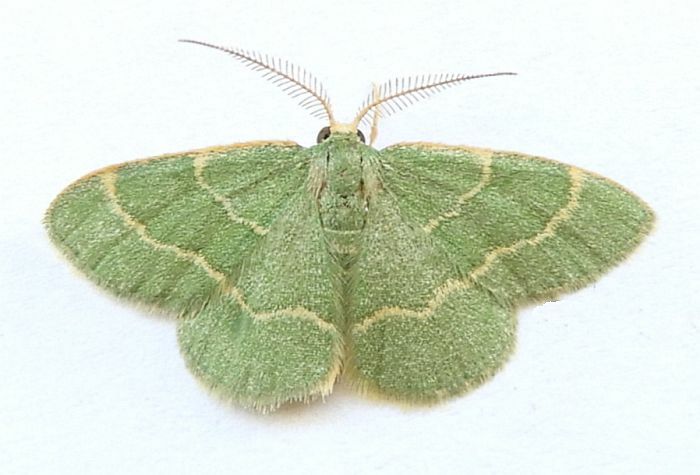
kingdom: Animalia
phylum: Arthropoda
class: Insecta
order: Lepidoptera
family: Geometridae
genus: Chlorochlamys
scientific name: Chlorochlamys phyllinaria
